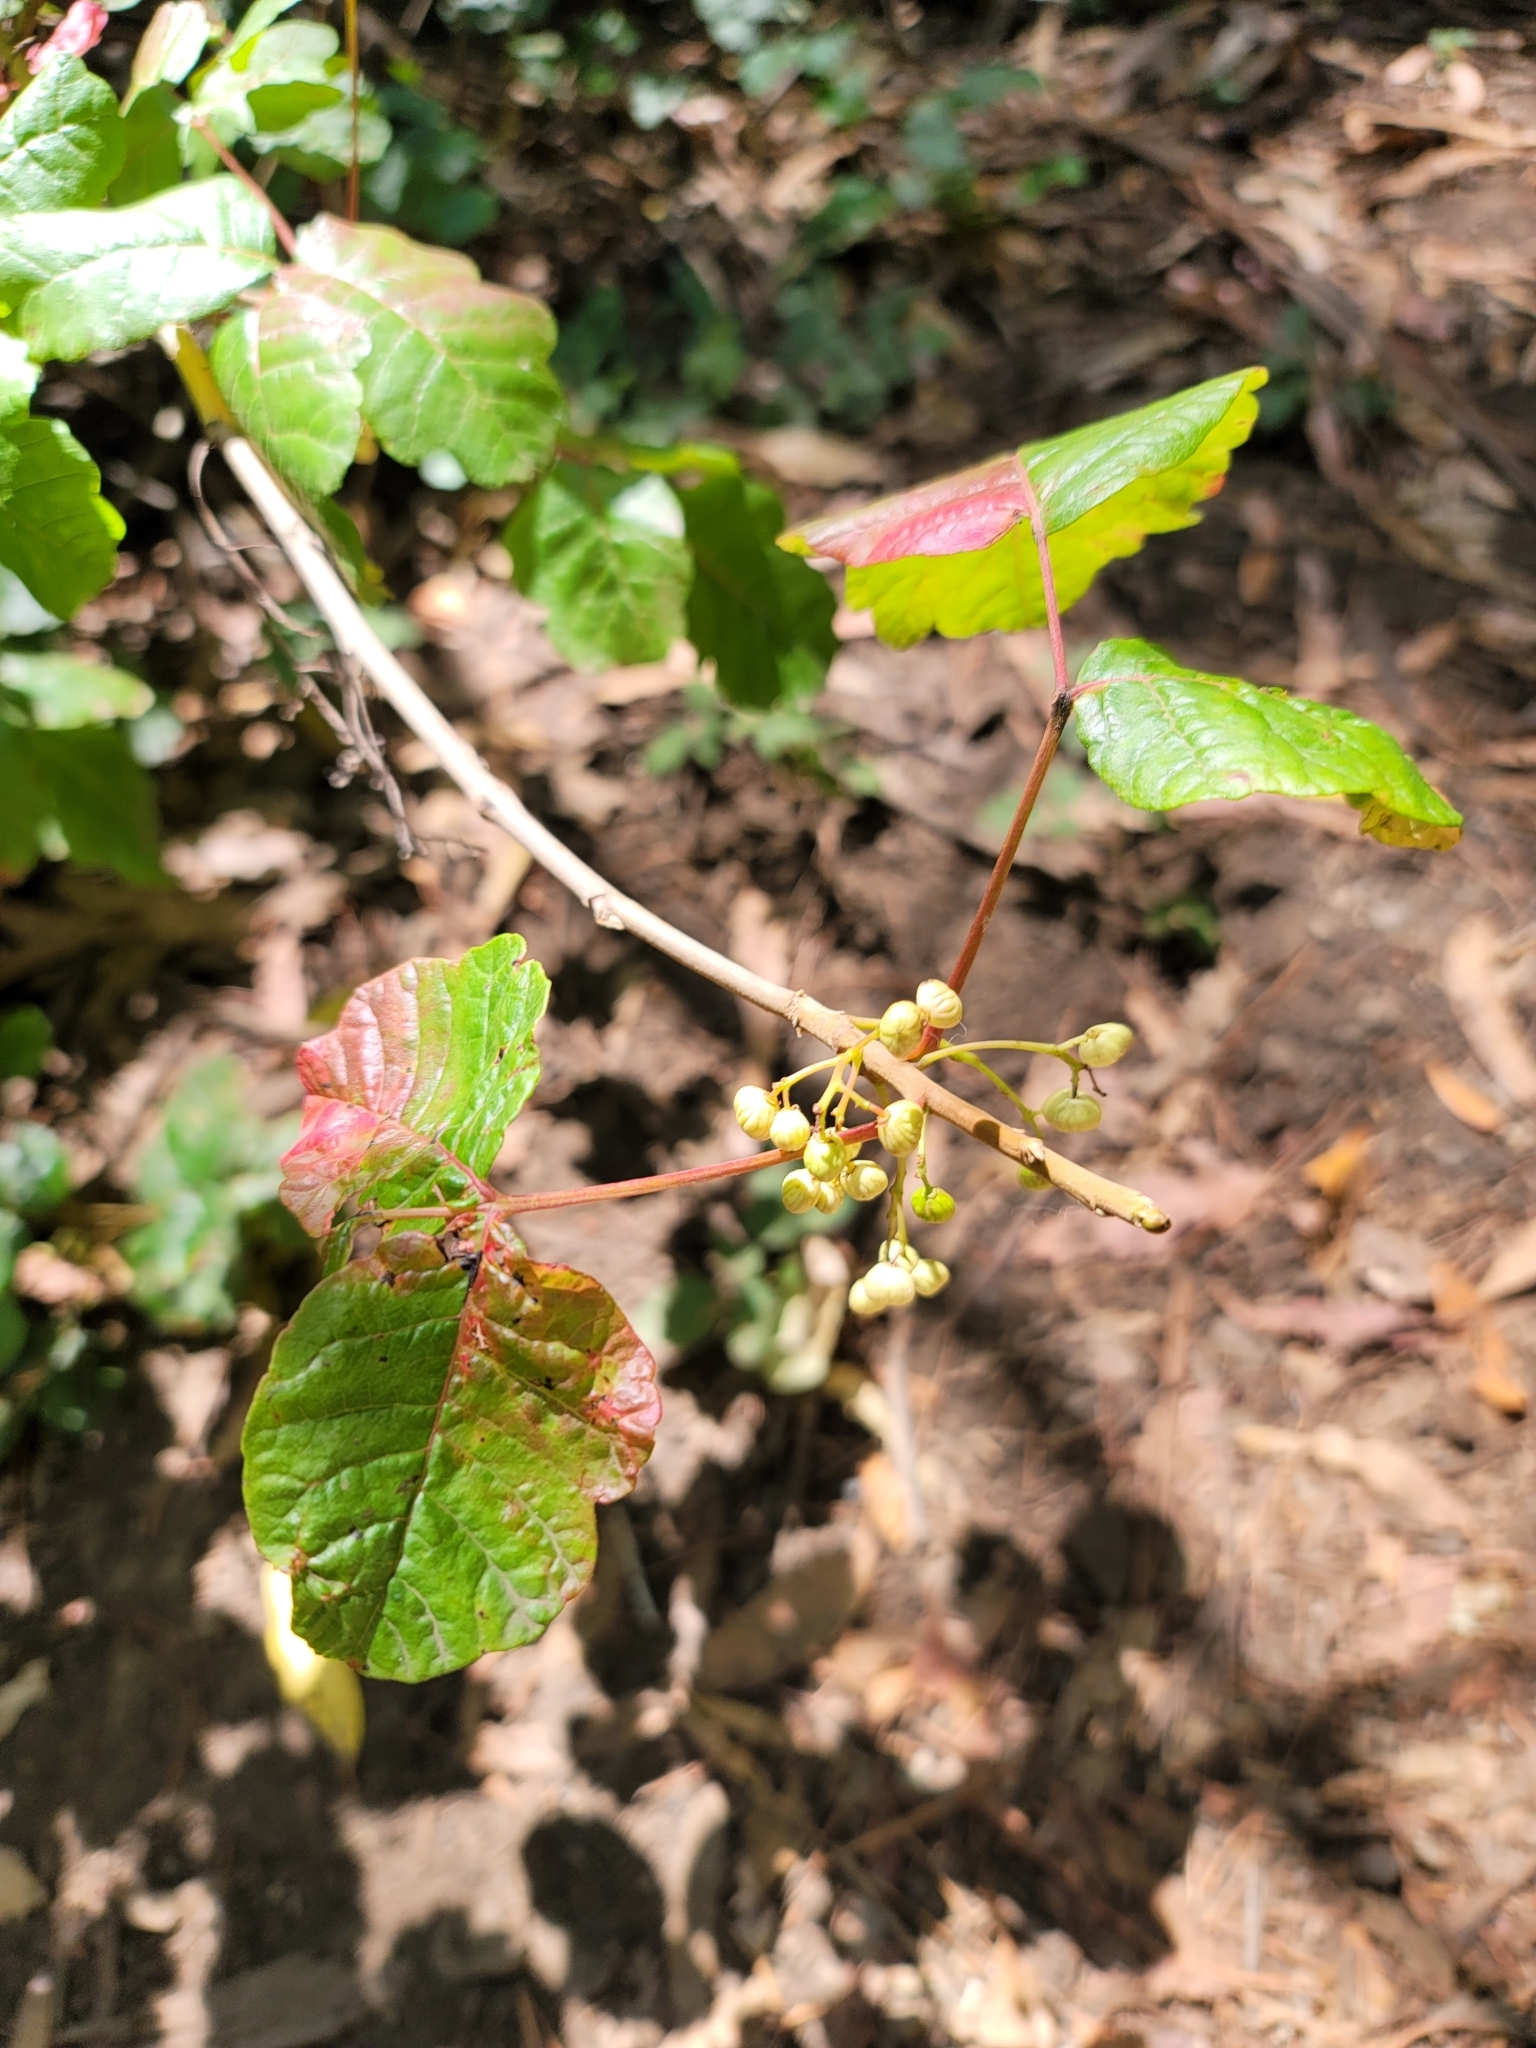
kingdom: Plantae
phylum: Tracheophyta
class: Magnoliopsida
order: Sapindales
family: Anacardiaceae
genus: Toxicodendron
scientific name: Toxicodendron diversilobum
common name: Pacific poison-oak
